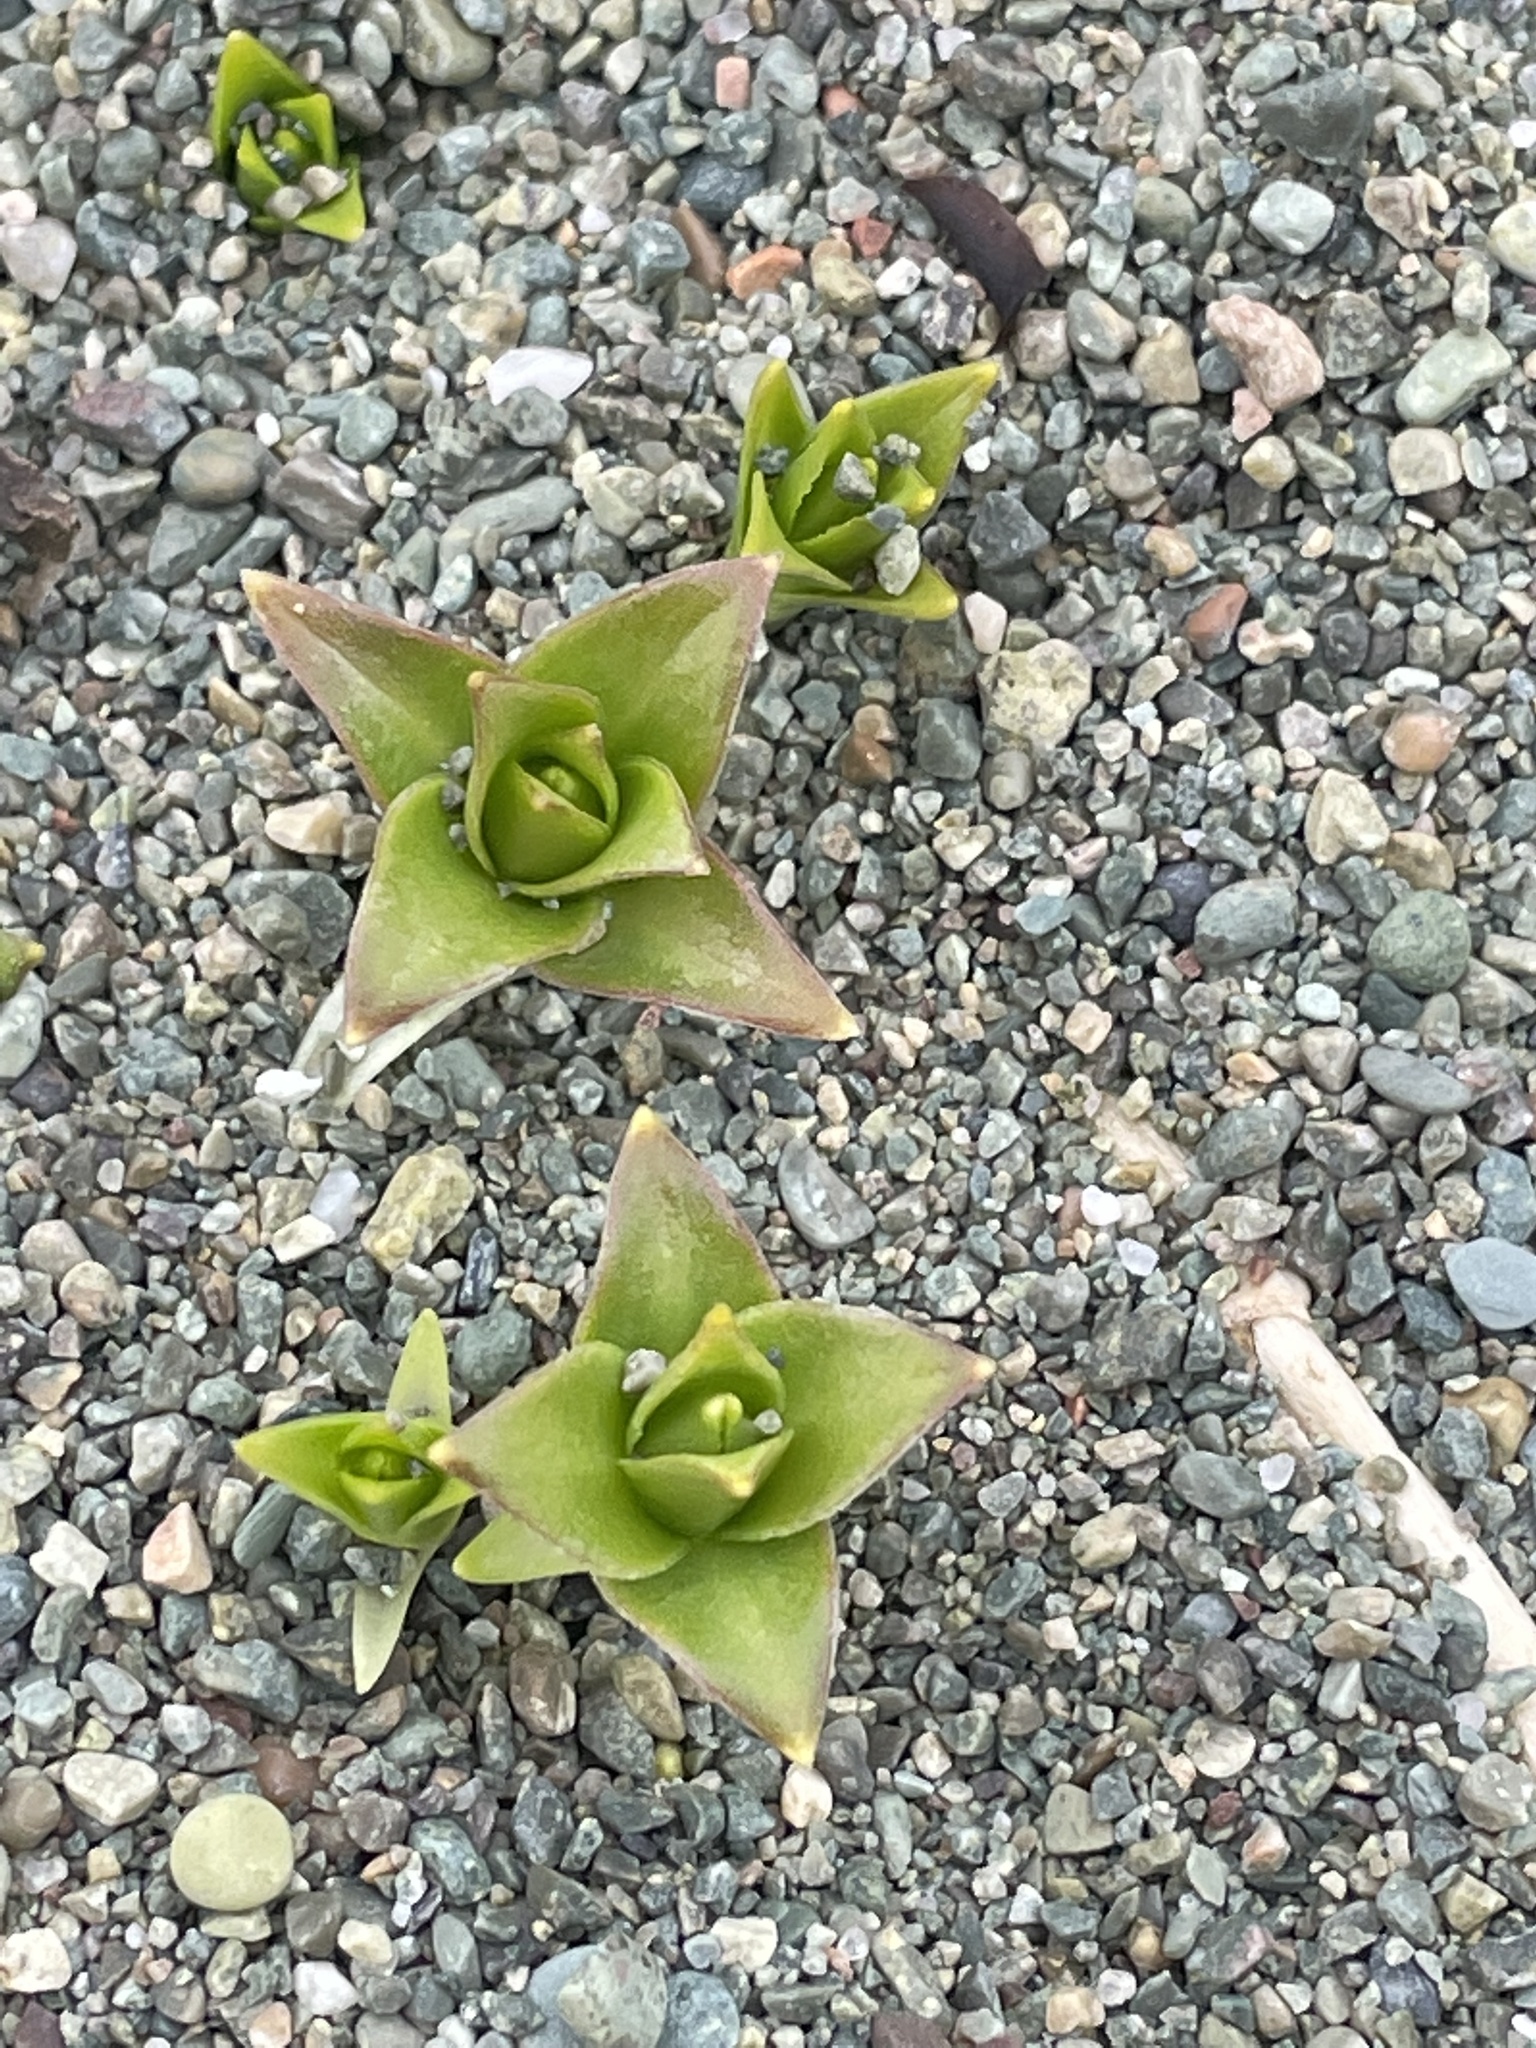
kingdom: Plantae
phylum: Tracheophyta
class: Magnoliopsida
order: Caryophyllales
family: Caryophyllaceae
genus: Honckenya
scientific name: Honckenya peploides
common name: Sea sandwort
